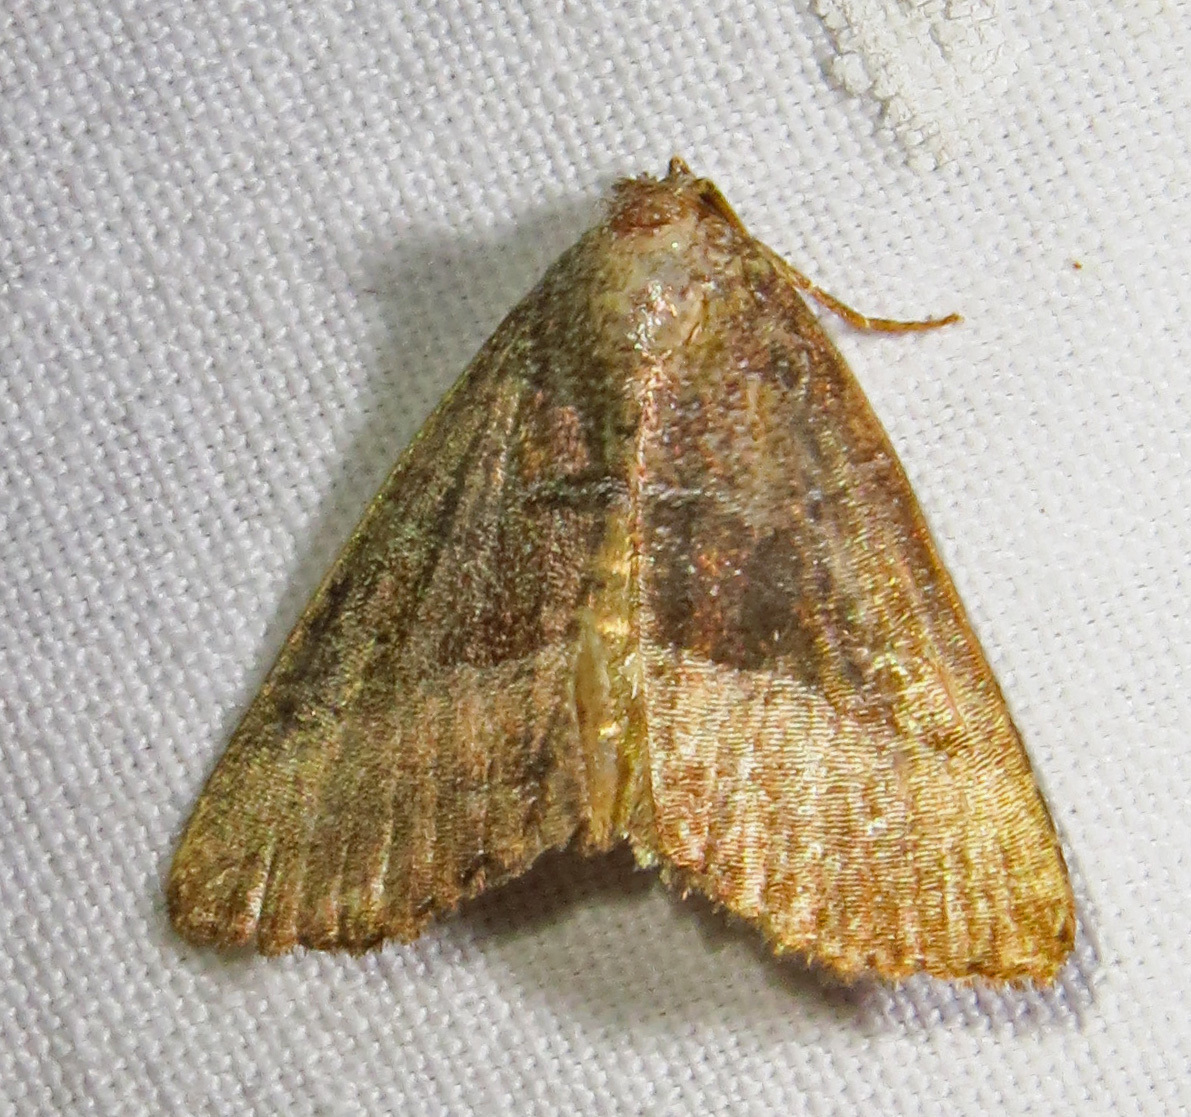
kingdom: Animalia
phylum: Arthropoda
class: Insecta
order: Lepidoptera
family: Noctuidae
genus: Ogdoconta
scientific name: Ogdoconta cinereola
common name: Common pinkband
